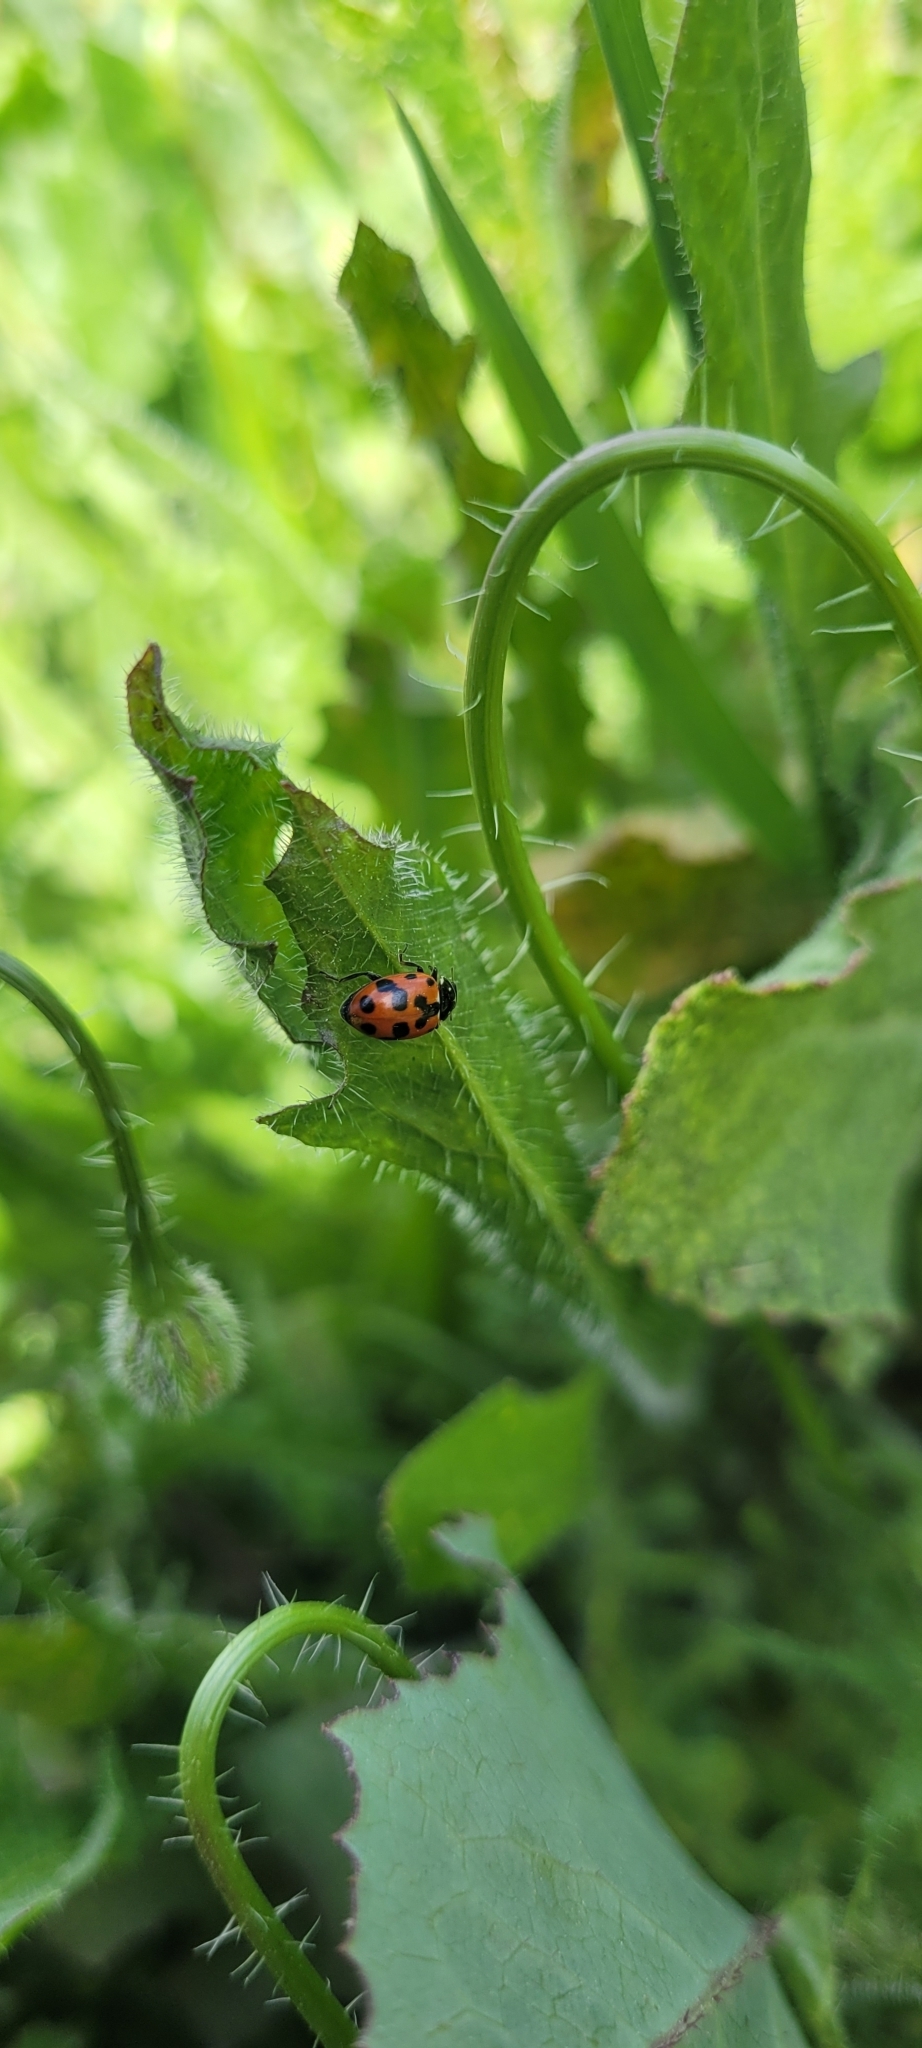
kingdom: Animalia
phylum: Arthropoda
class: Insecta
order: Coleoptera
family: Coccinellidae
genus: Hippodamia
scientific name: Hippodamia variegata
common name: Ladybird beetle
